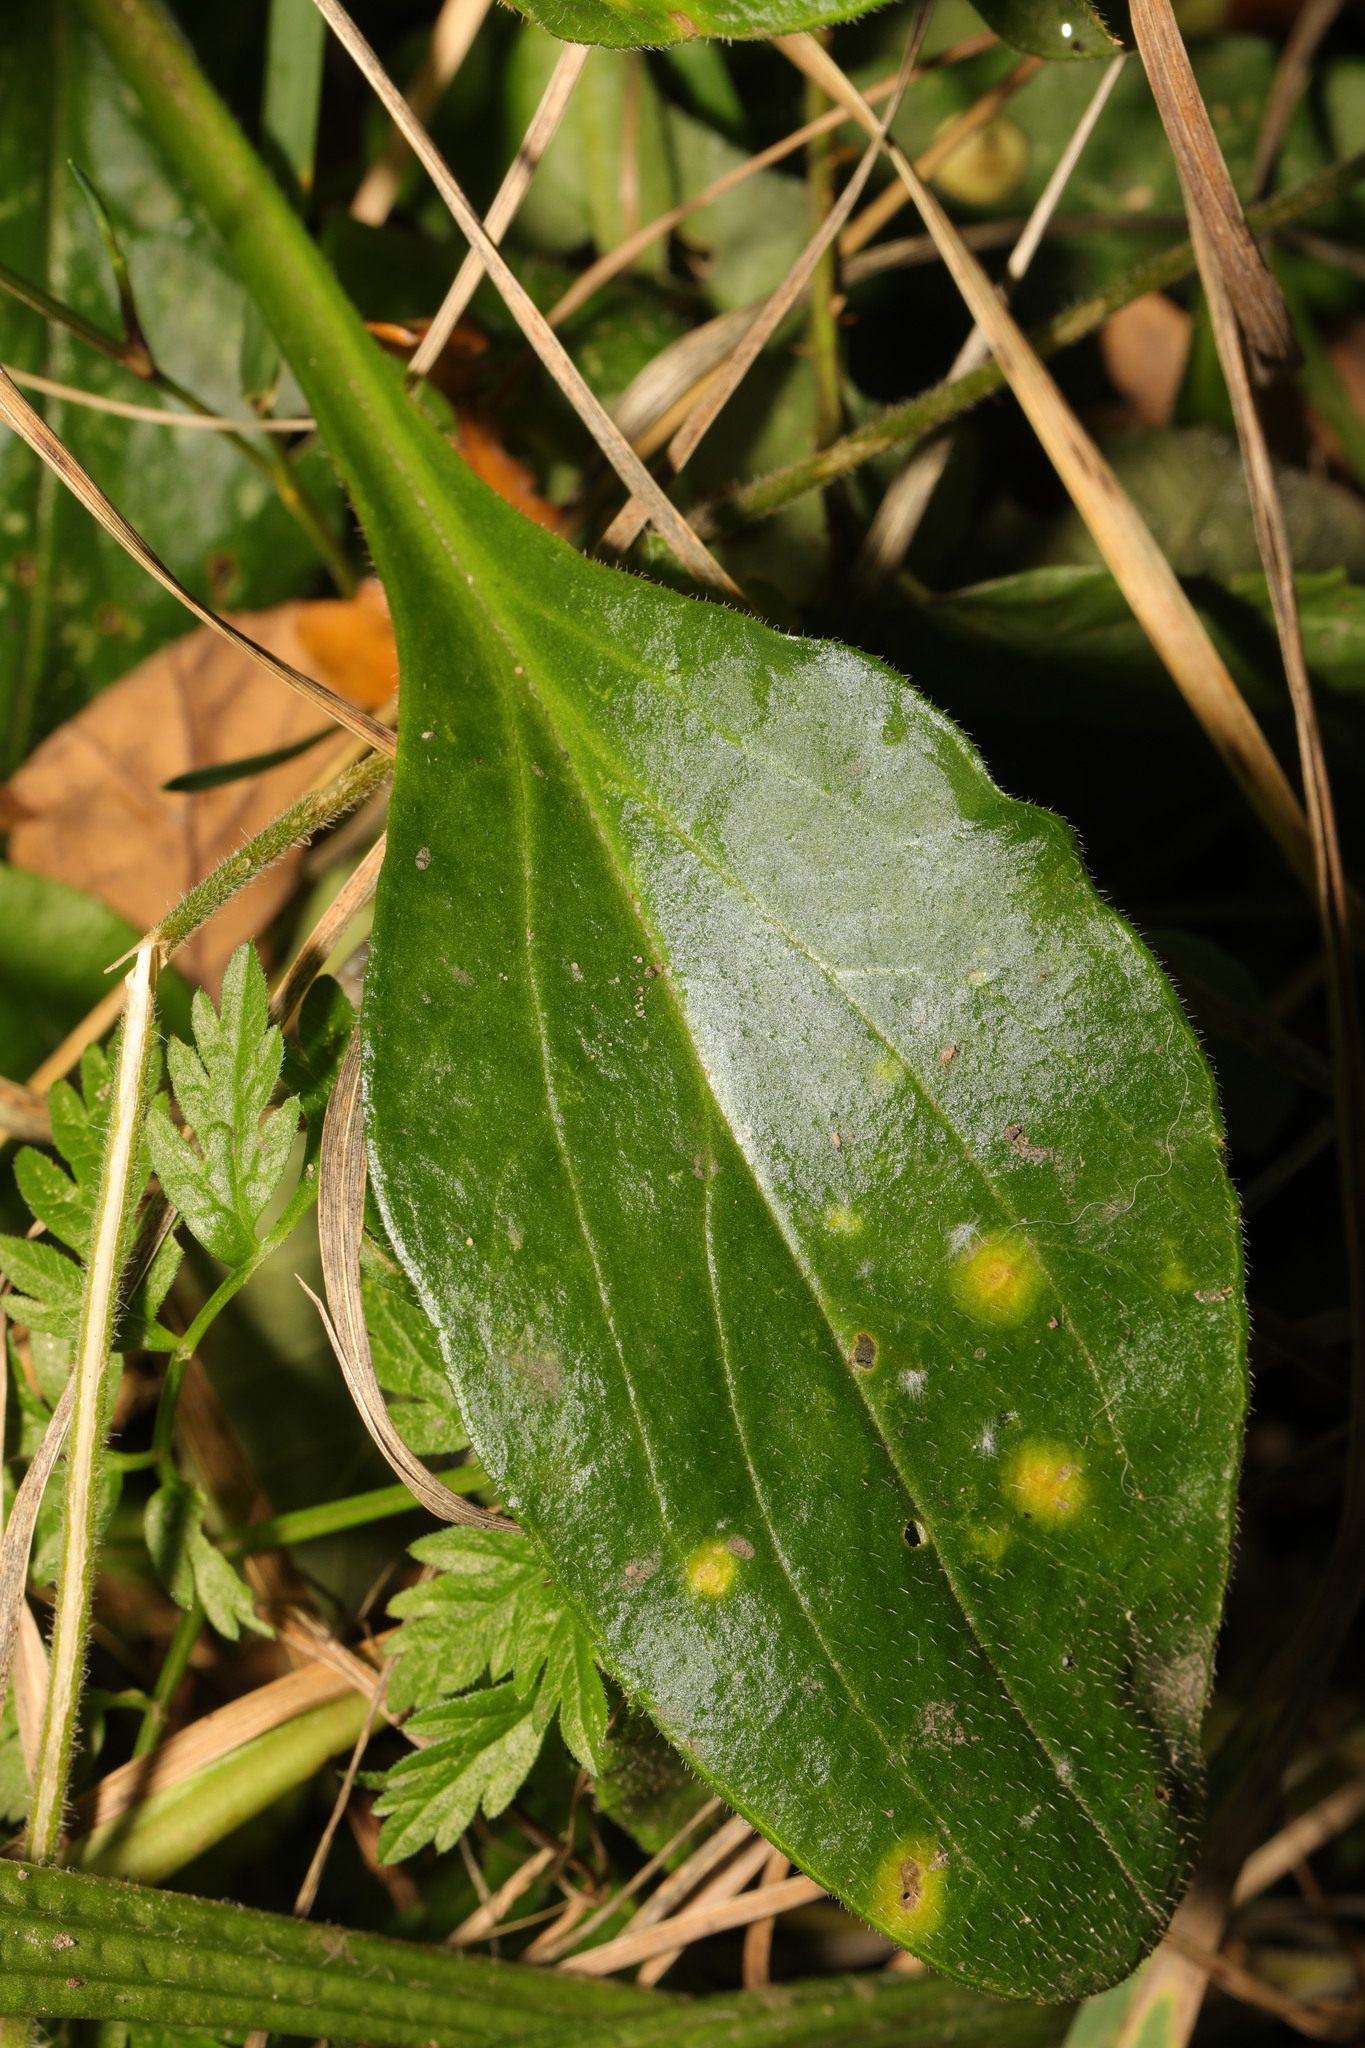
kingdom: Plantae
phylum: Tracheophyta
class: Magnoliopsida
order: Caryophyllales
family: Caryophyllaceae
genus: Silene
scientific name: Silene dioica
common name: Red campion
